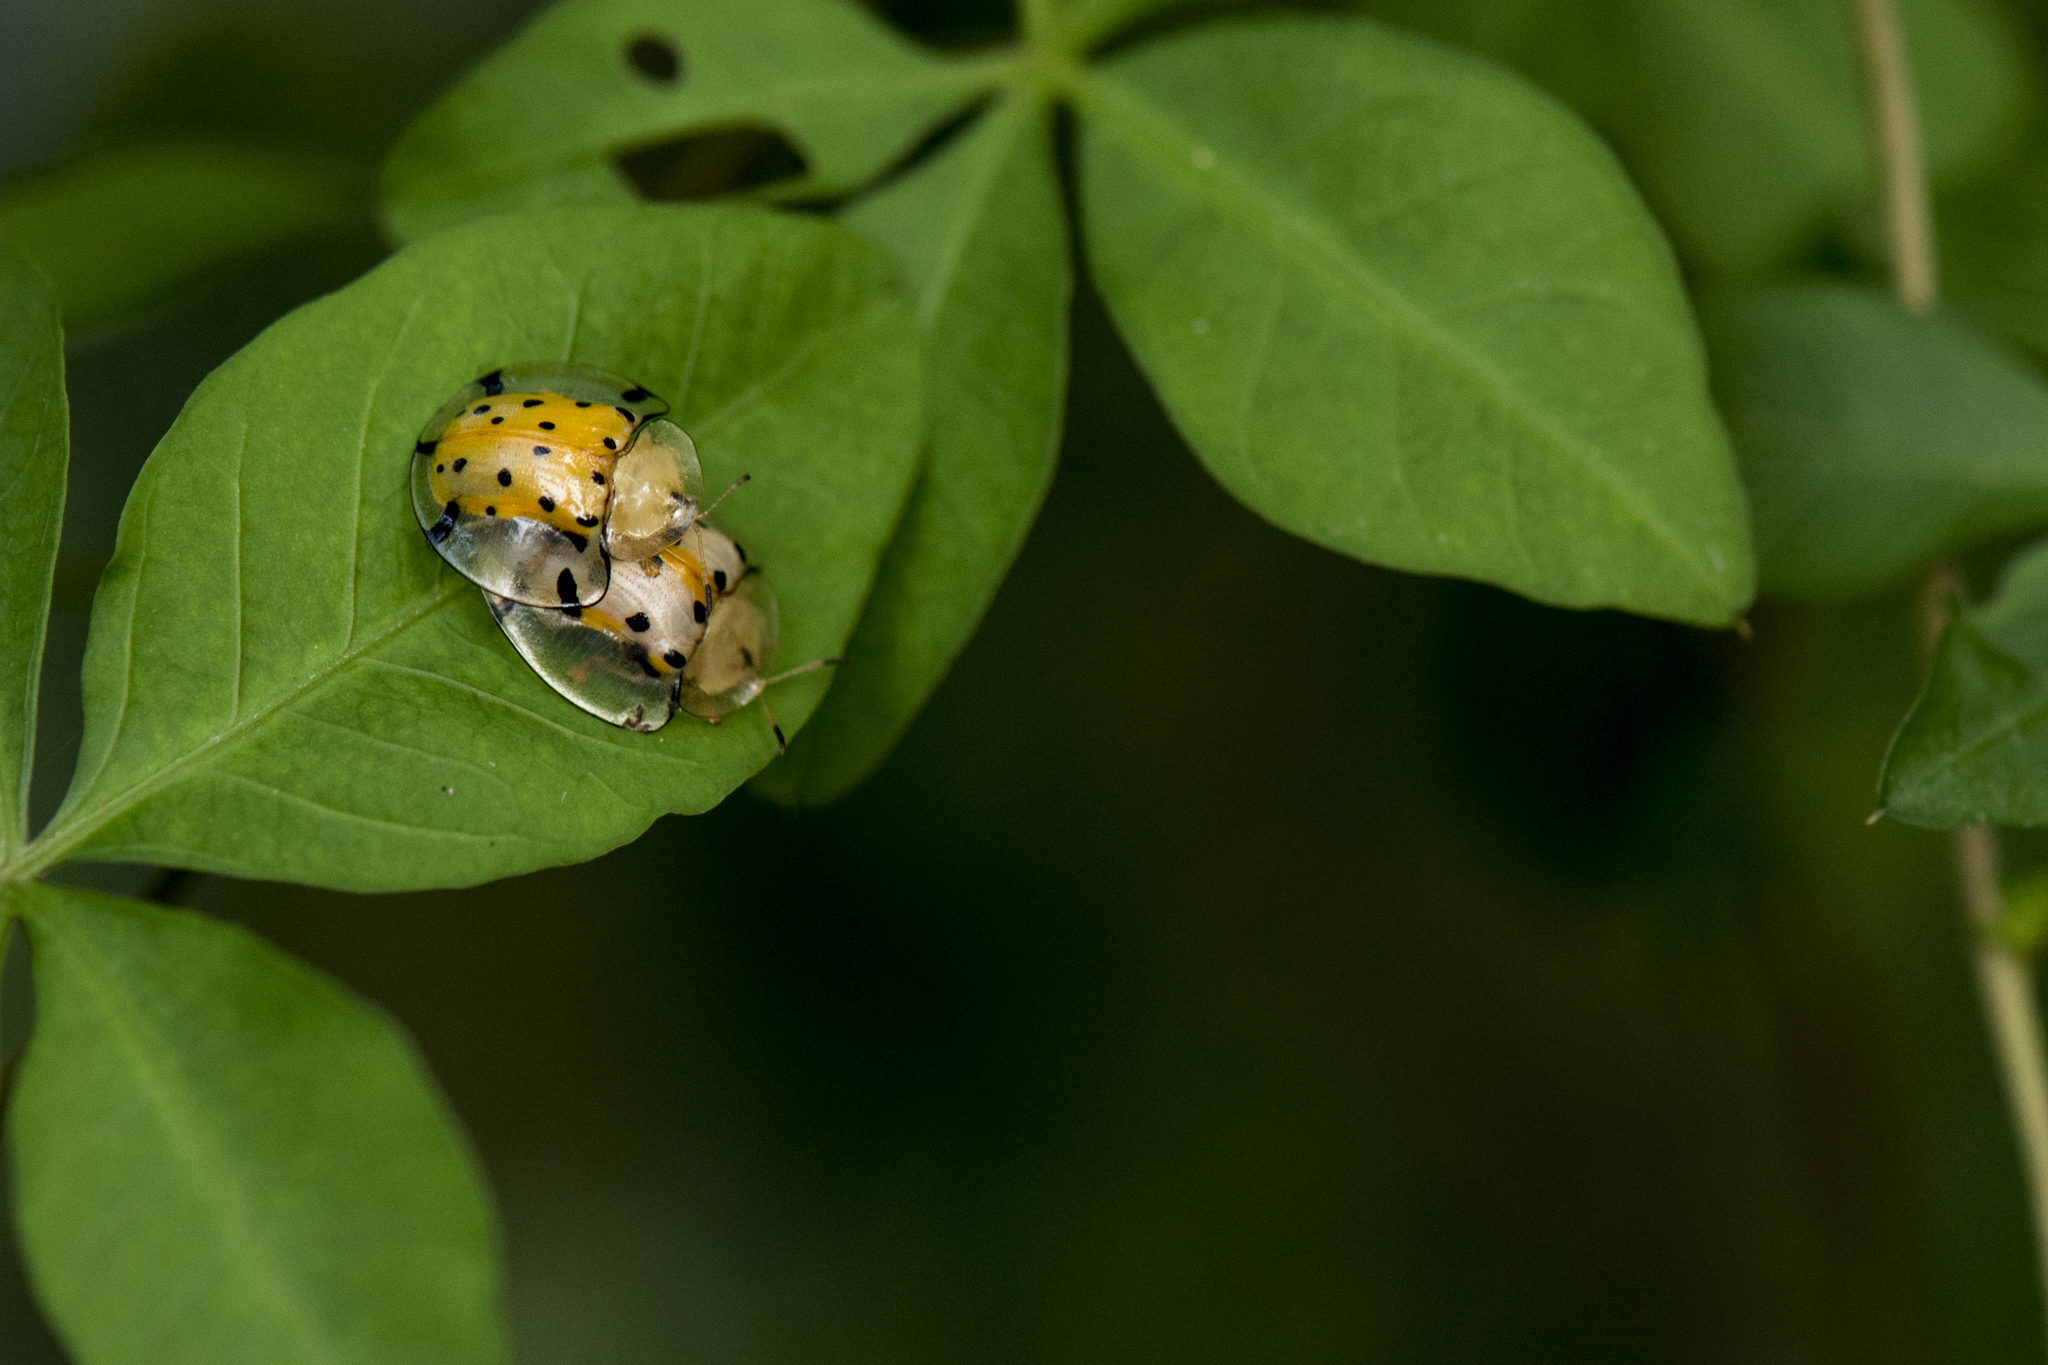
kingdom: Animalia
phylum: Arthropoda
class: Insecta
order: Coleoptera
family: Chrysomelidae
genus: Aspidimorpha
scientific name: Aspidimorpha miliaris
